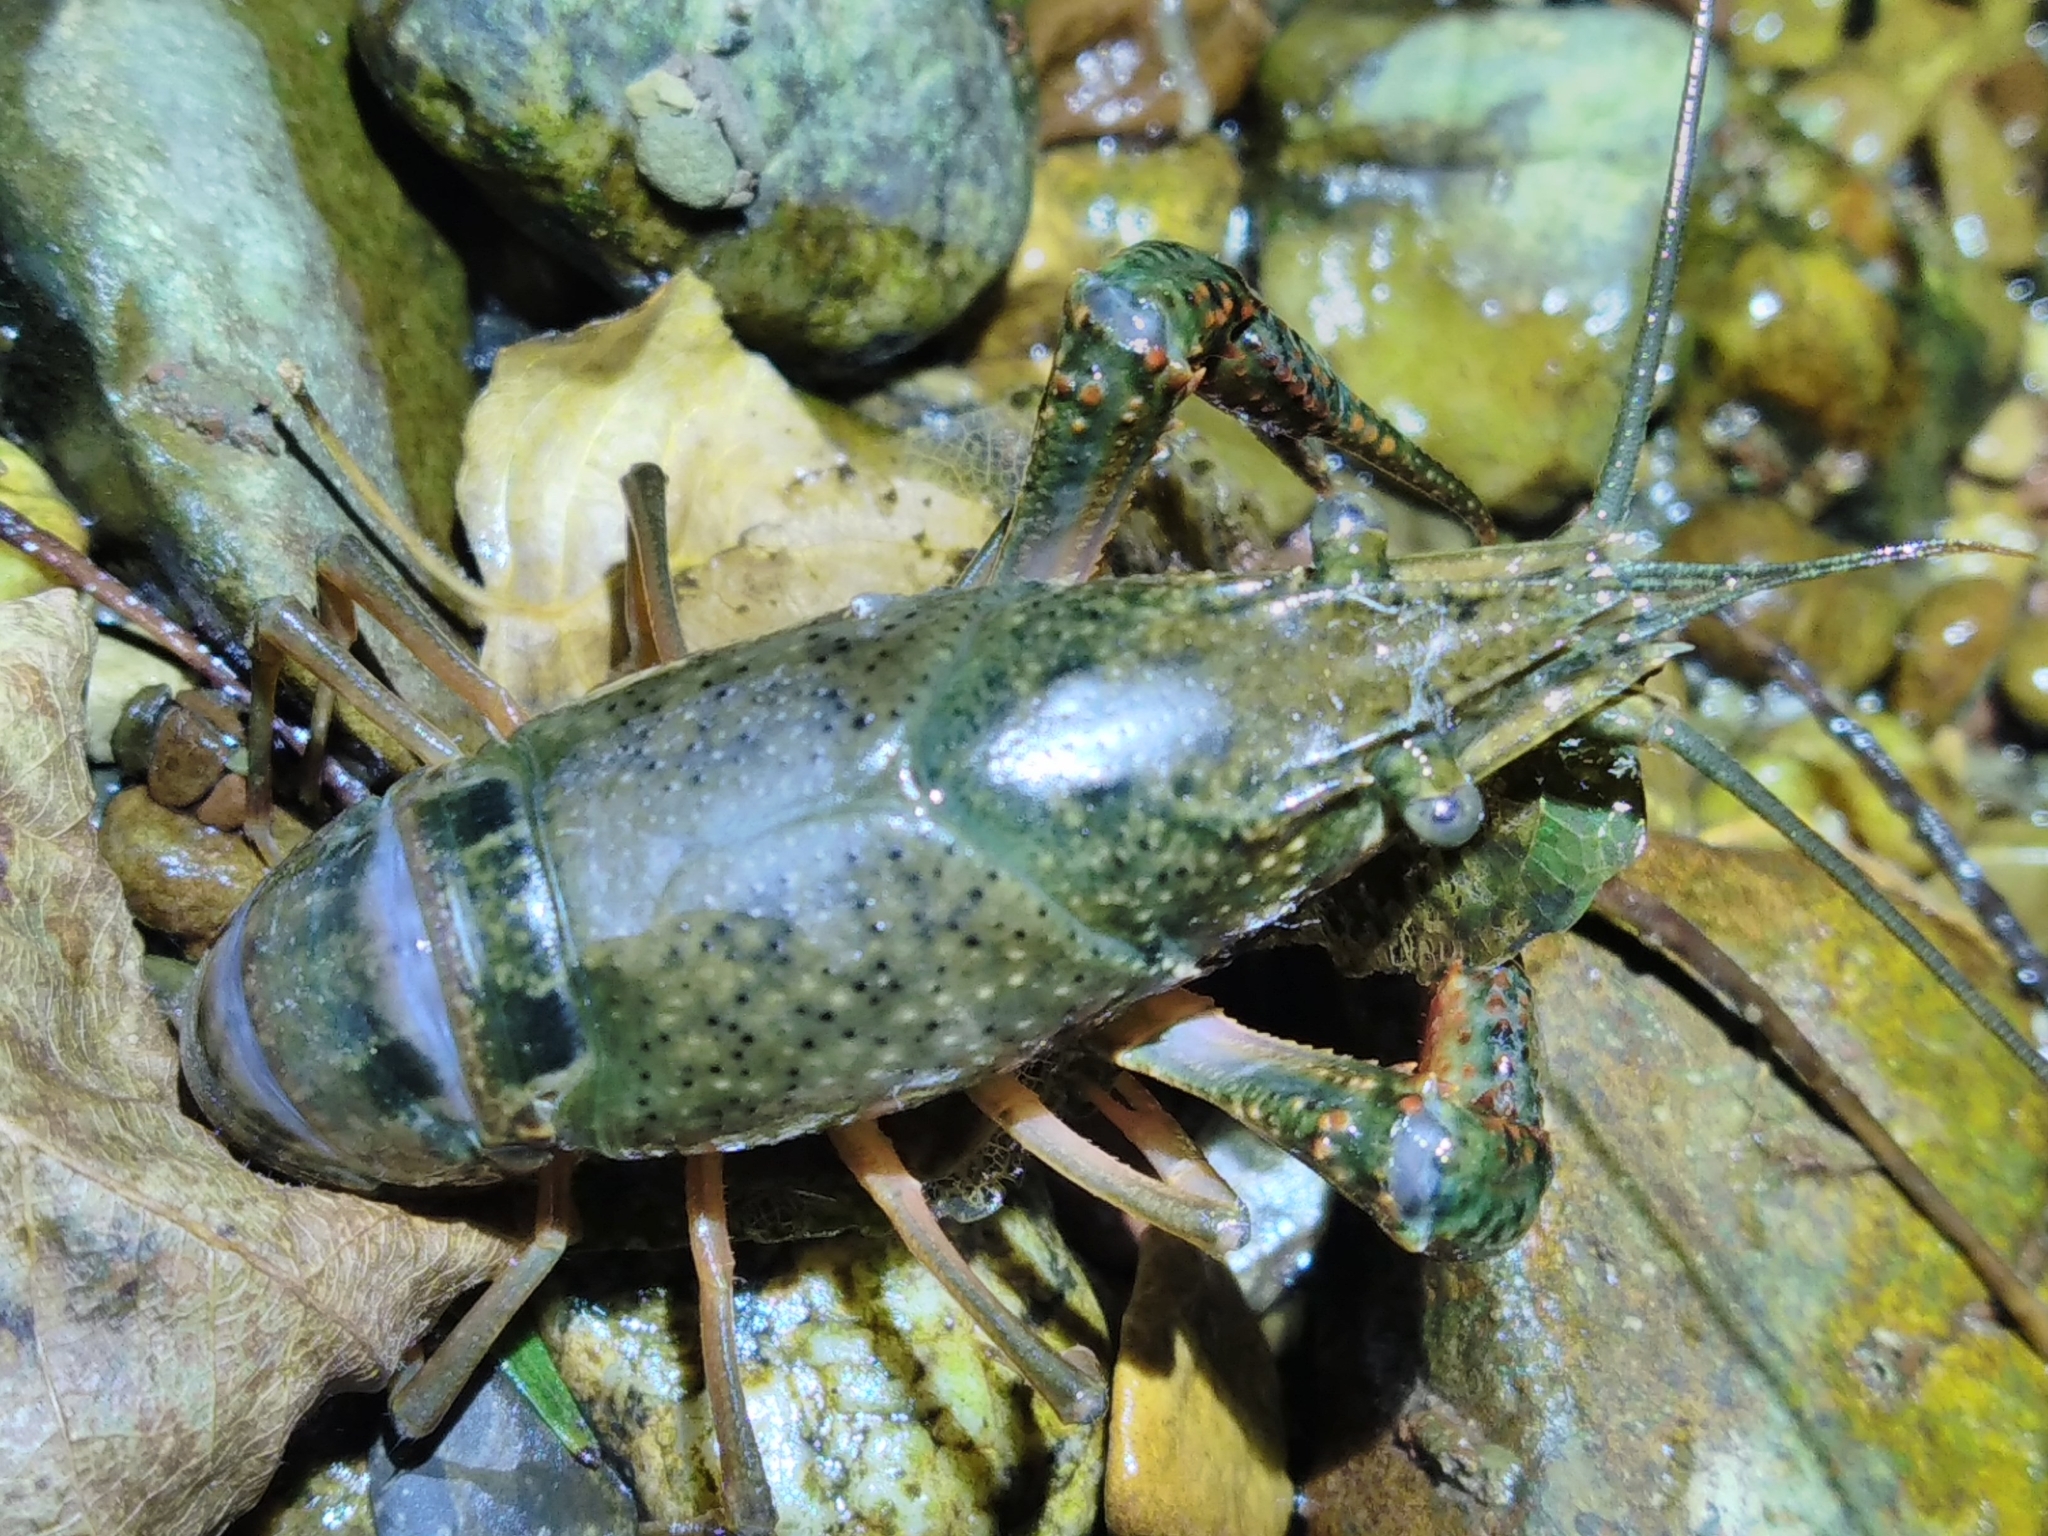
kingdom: Animalia
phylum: Arthropoda
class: Malacostraca
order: Decapoda
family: Cambaridae
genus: Procambarus
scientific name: Procambarus clarkii
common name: Red swamp crayfish
